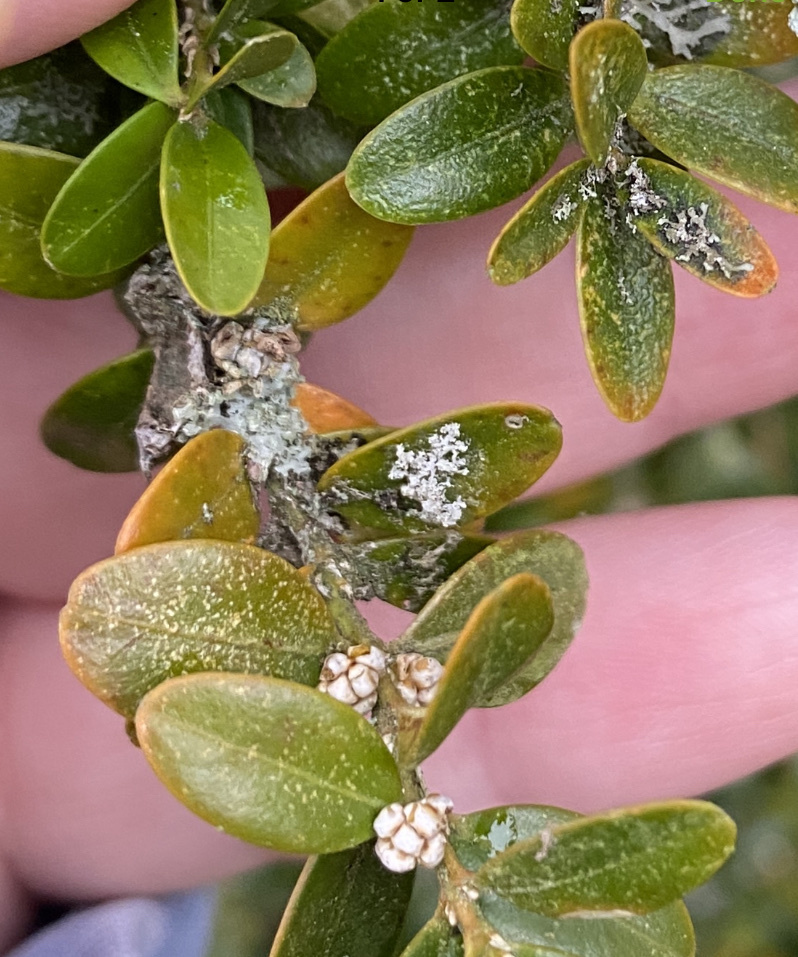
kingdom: Animalia
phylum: Arthropoda
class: Arachnida
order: Trombidiformes
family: Tetranychidae
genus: Eurytetranychus
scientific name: Eurytetranychus buxi
